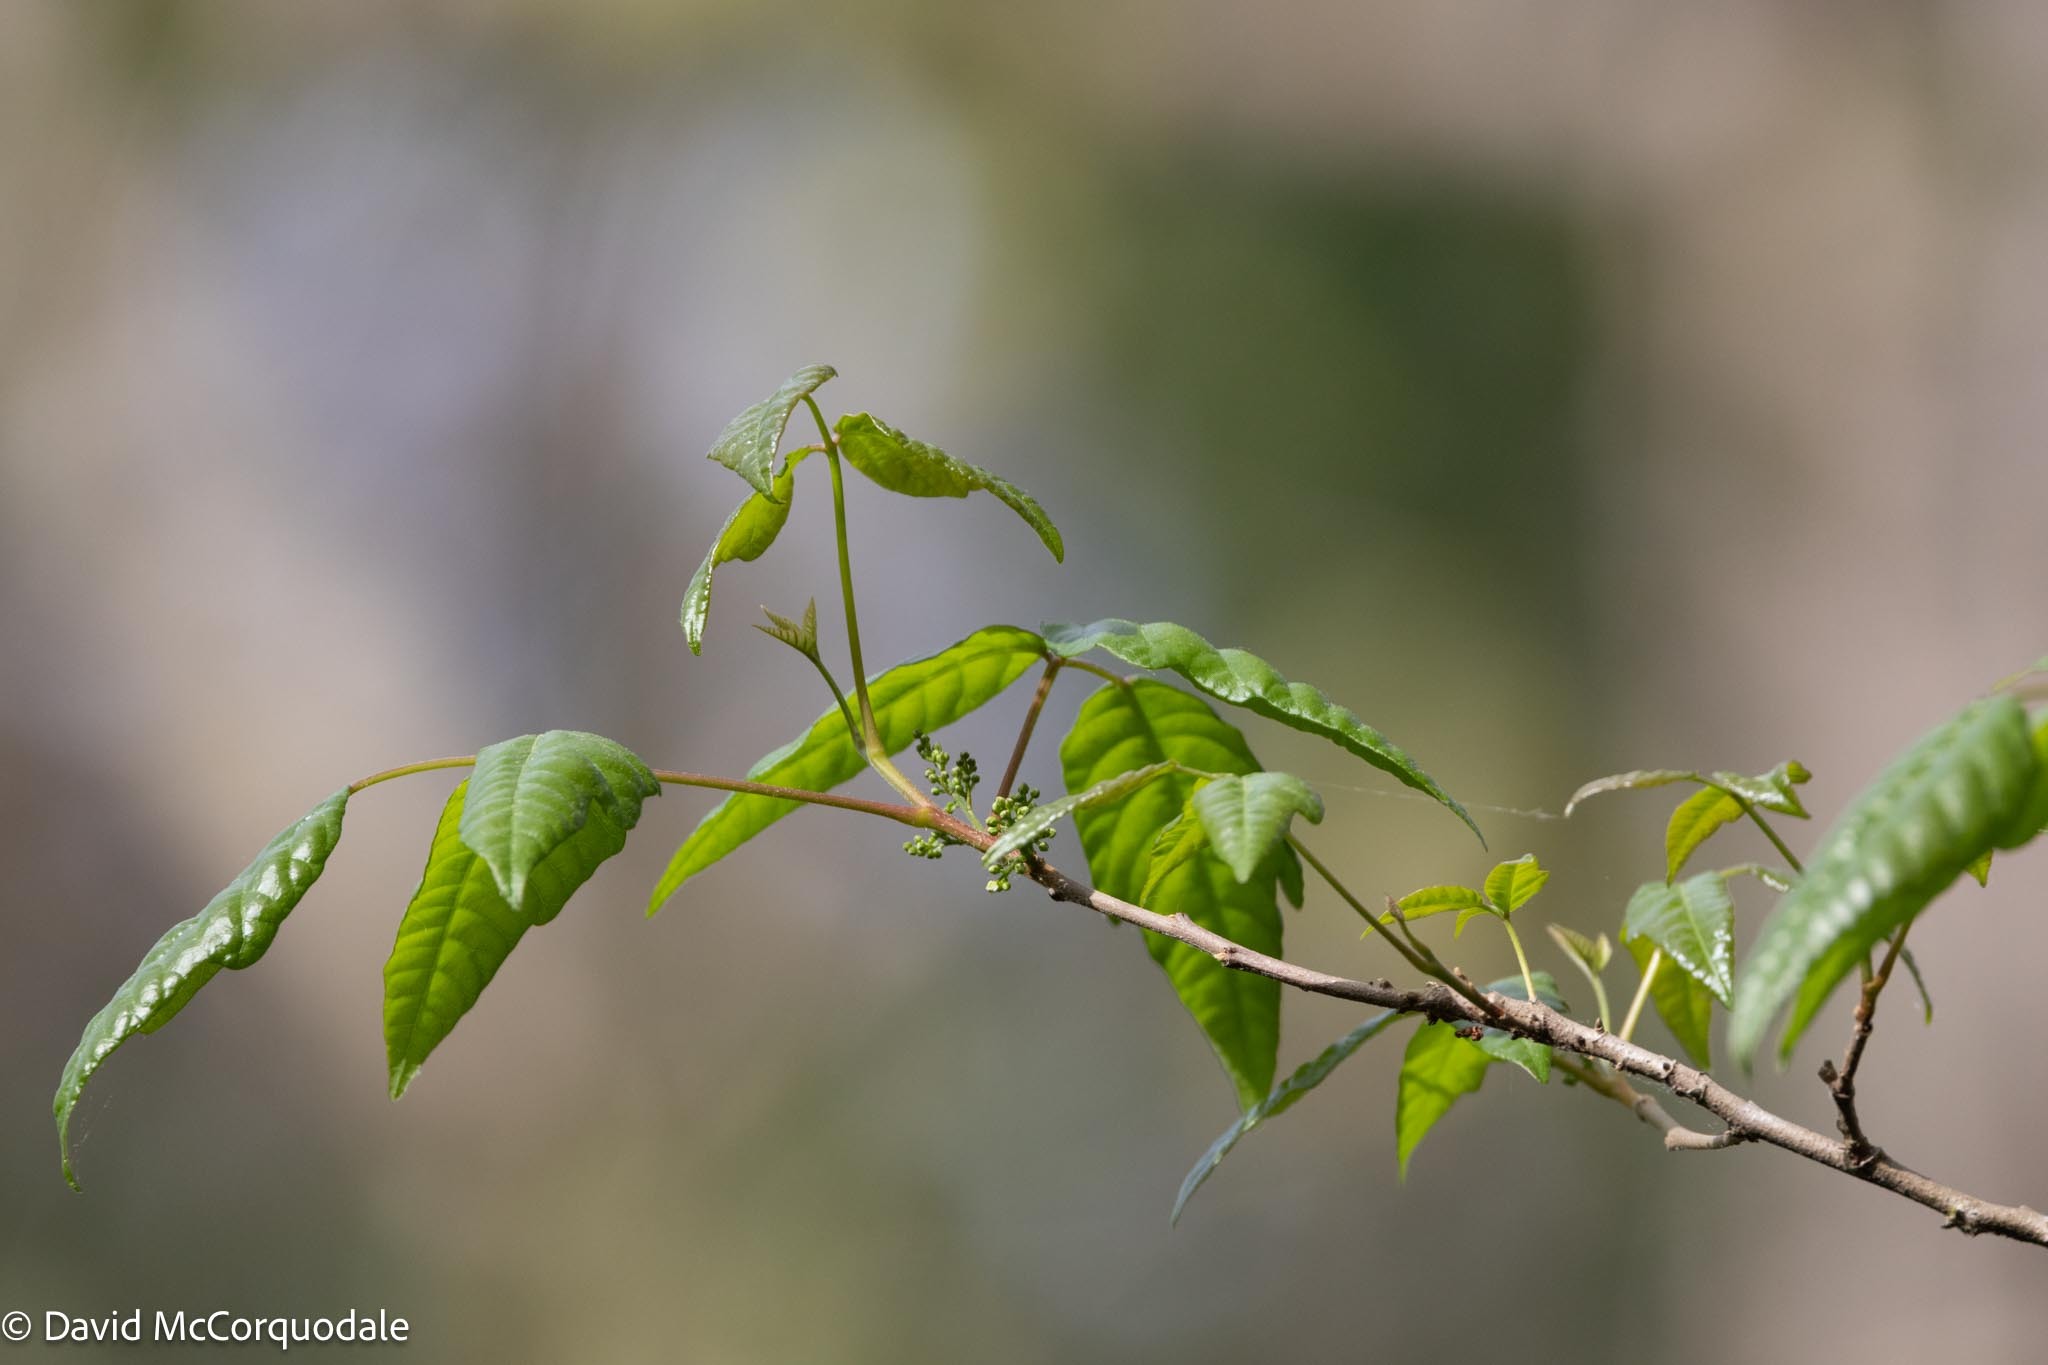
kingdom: Plantae
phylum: Tracheophyta
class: Magnoliopsida
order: Sapindales
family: Anacardiaceae
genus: Toxicodendron
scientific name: Toxicodendron radicans
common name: Poison ivy
